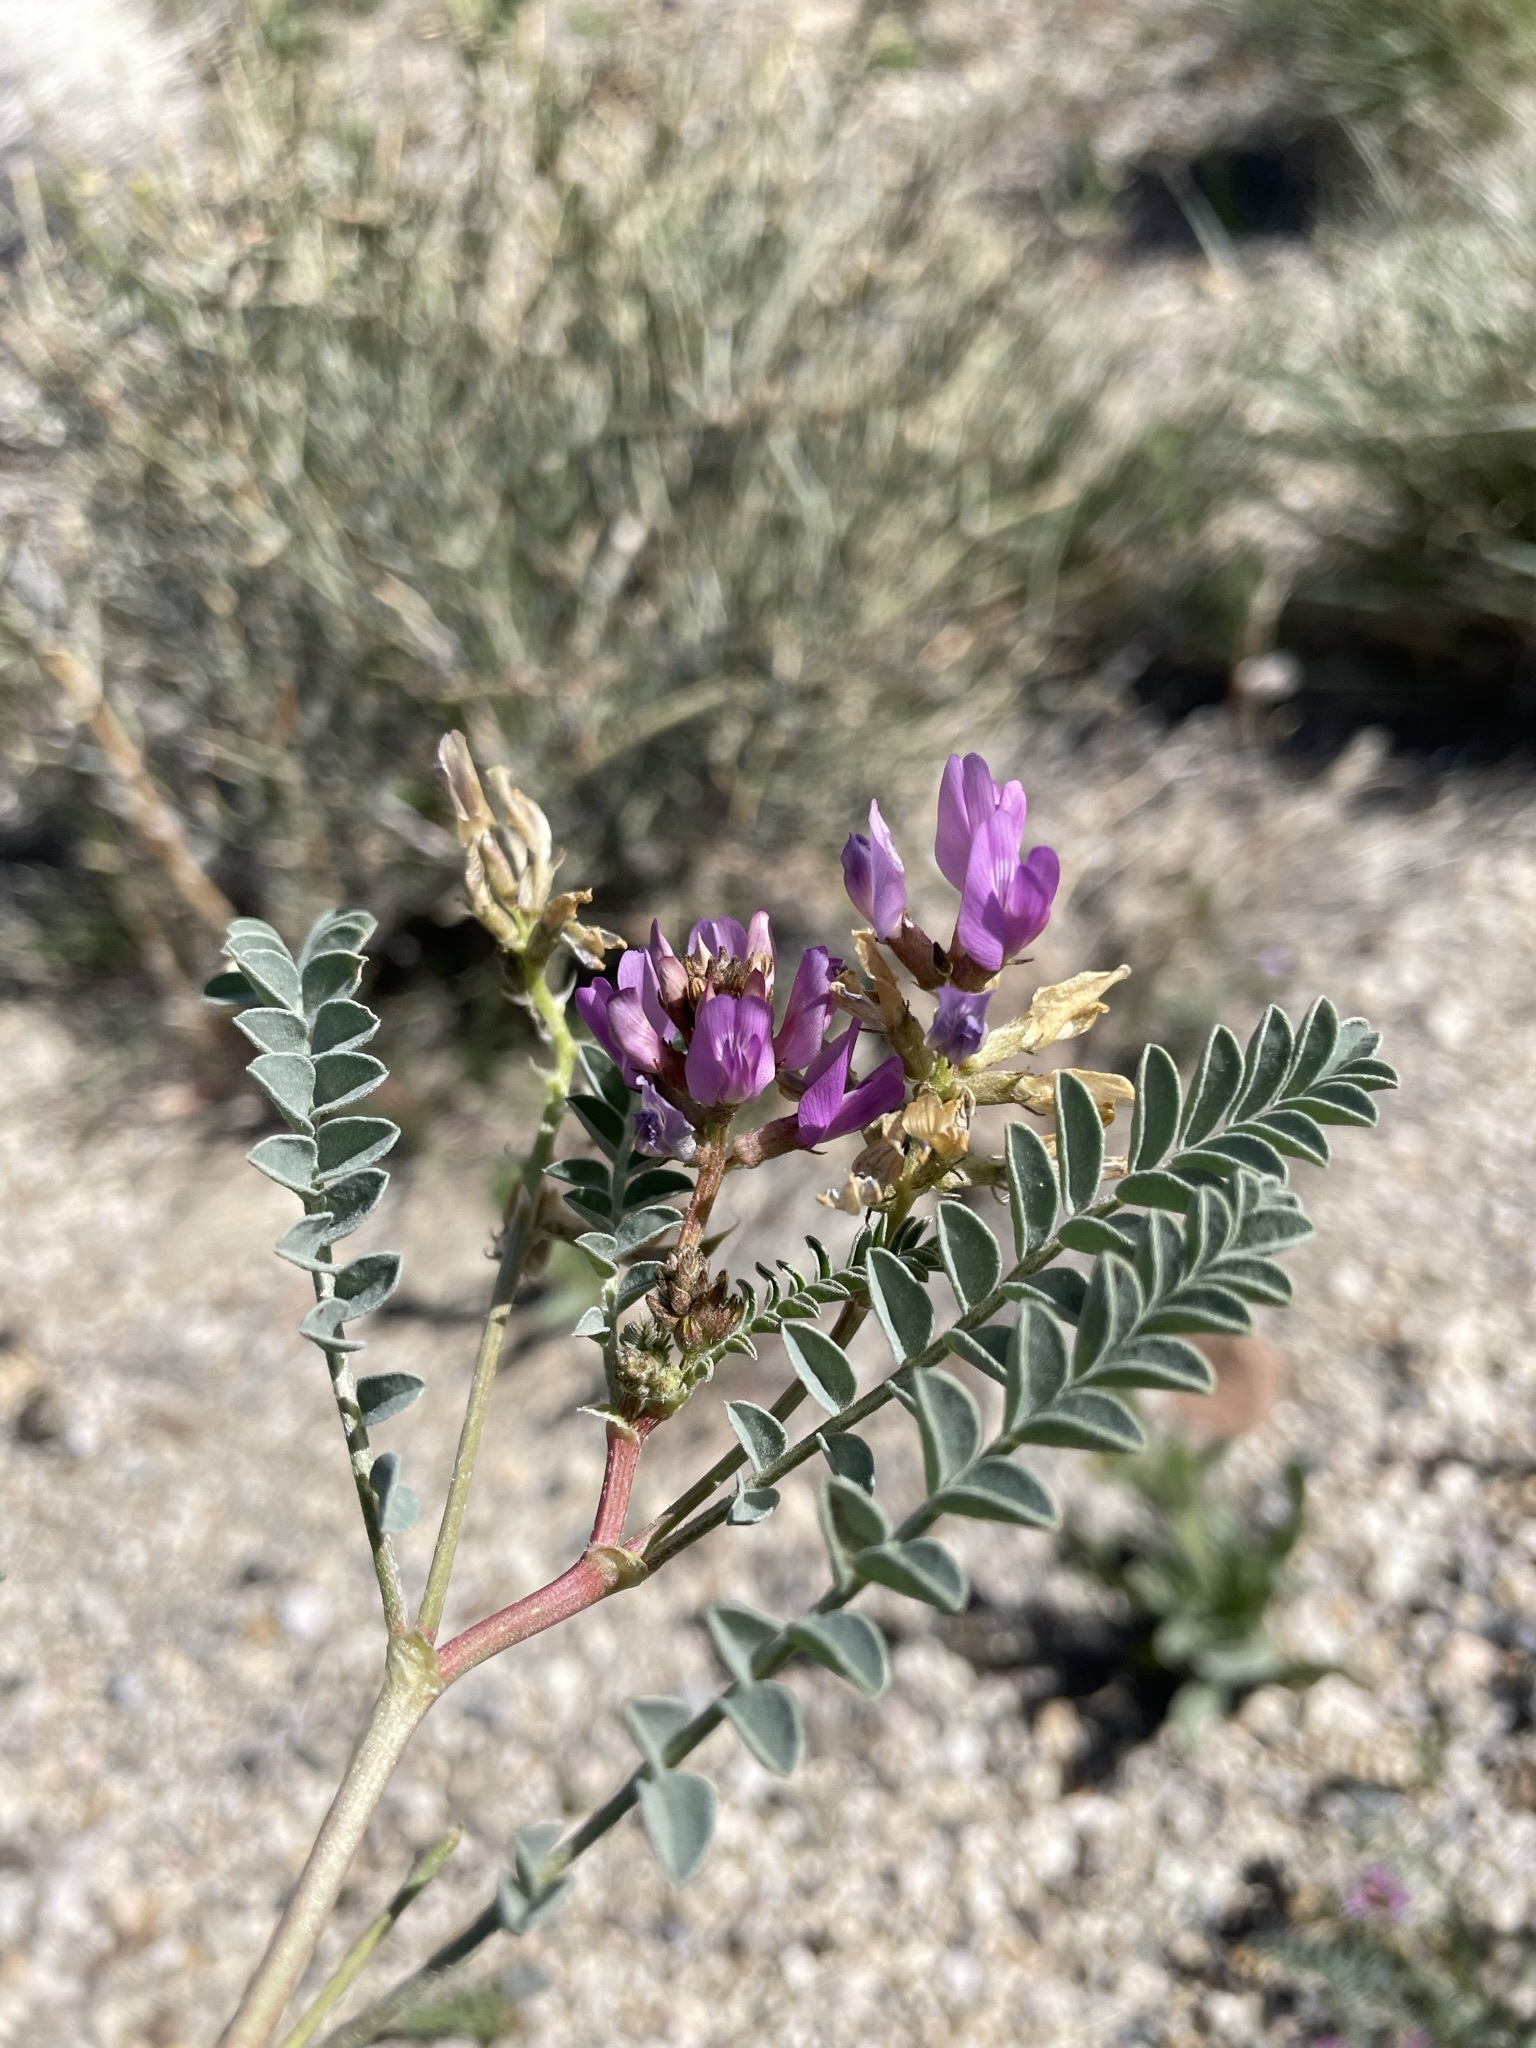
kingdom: Plantae
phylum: Tracheophyta
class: Magnoliopsida
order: Fabales
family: Fabaceae
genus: Astragalus
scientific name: Astragalus lentiginosus
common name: Freckled milkvetch
